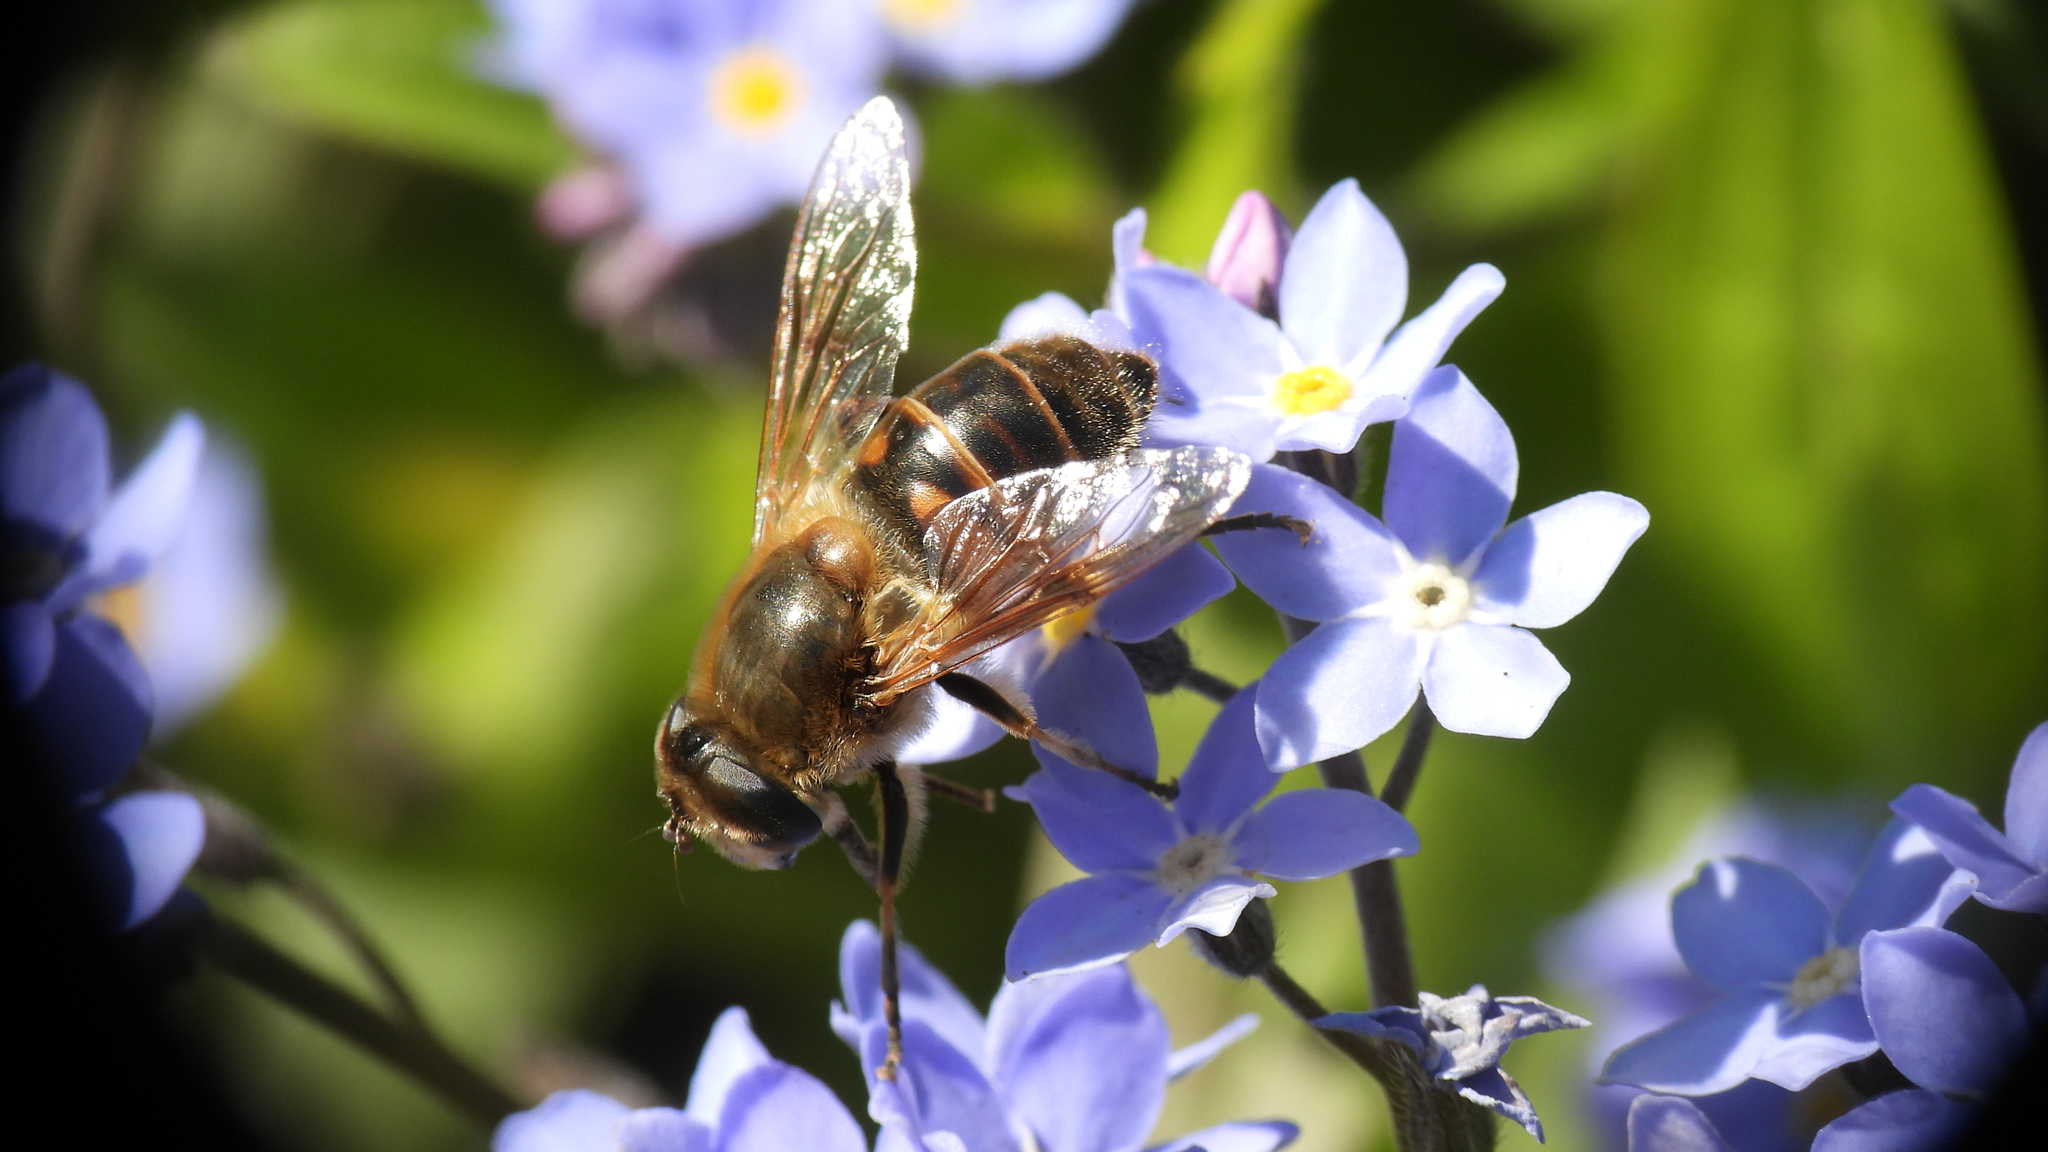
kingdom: Animalia
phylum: Arthropoda
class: Insecta
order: Diptera
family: Syrphidae
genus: Eristalis
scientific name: Eristalis tenax
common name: Drone fly
